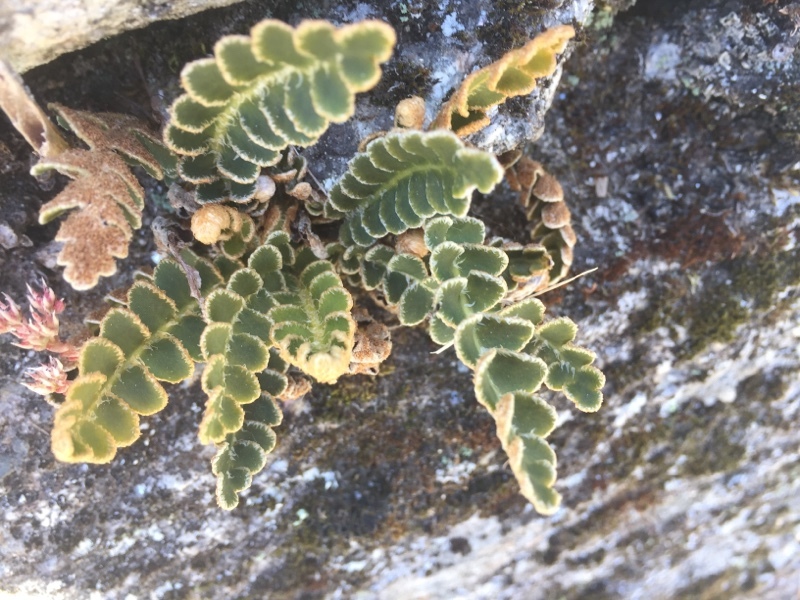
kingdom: Plantae
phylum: Tracheophyta
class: Polypodiopsida
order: Polypodiales
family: Aspleniaceae
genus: Asplenium
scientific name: Asplenium ceterach
